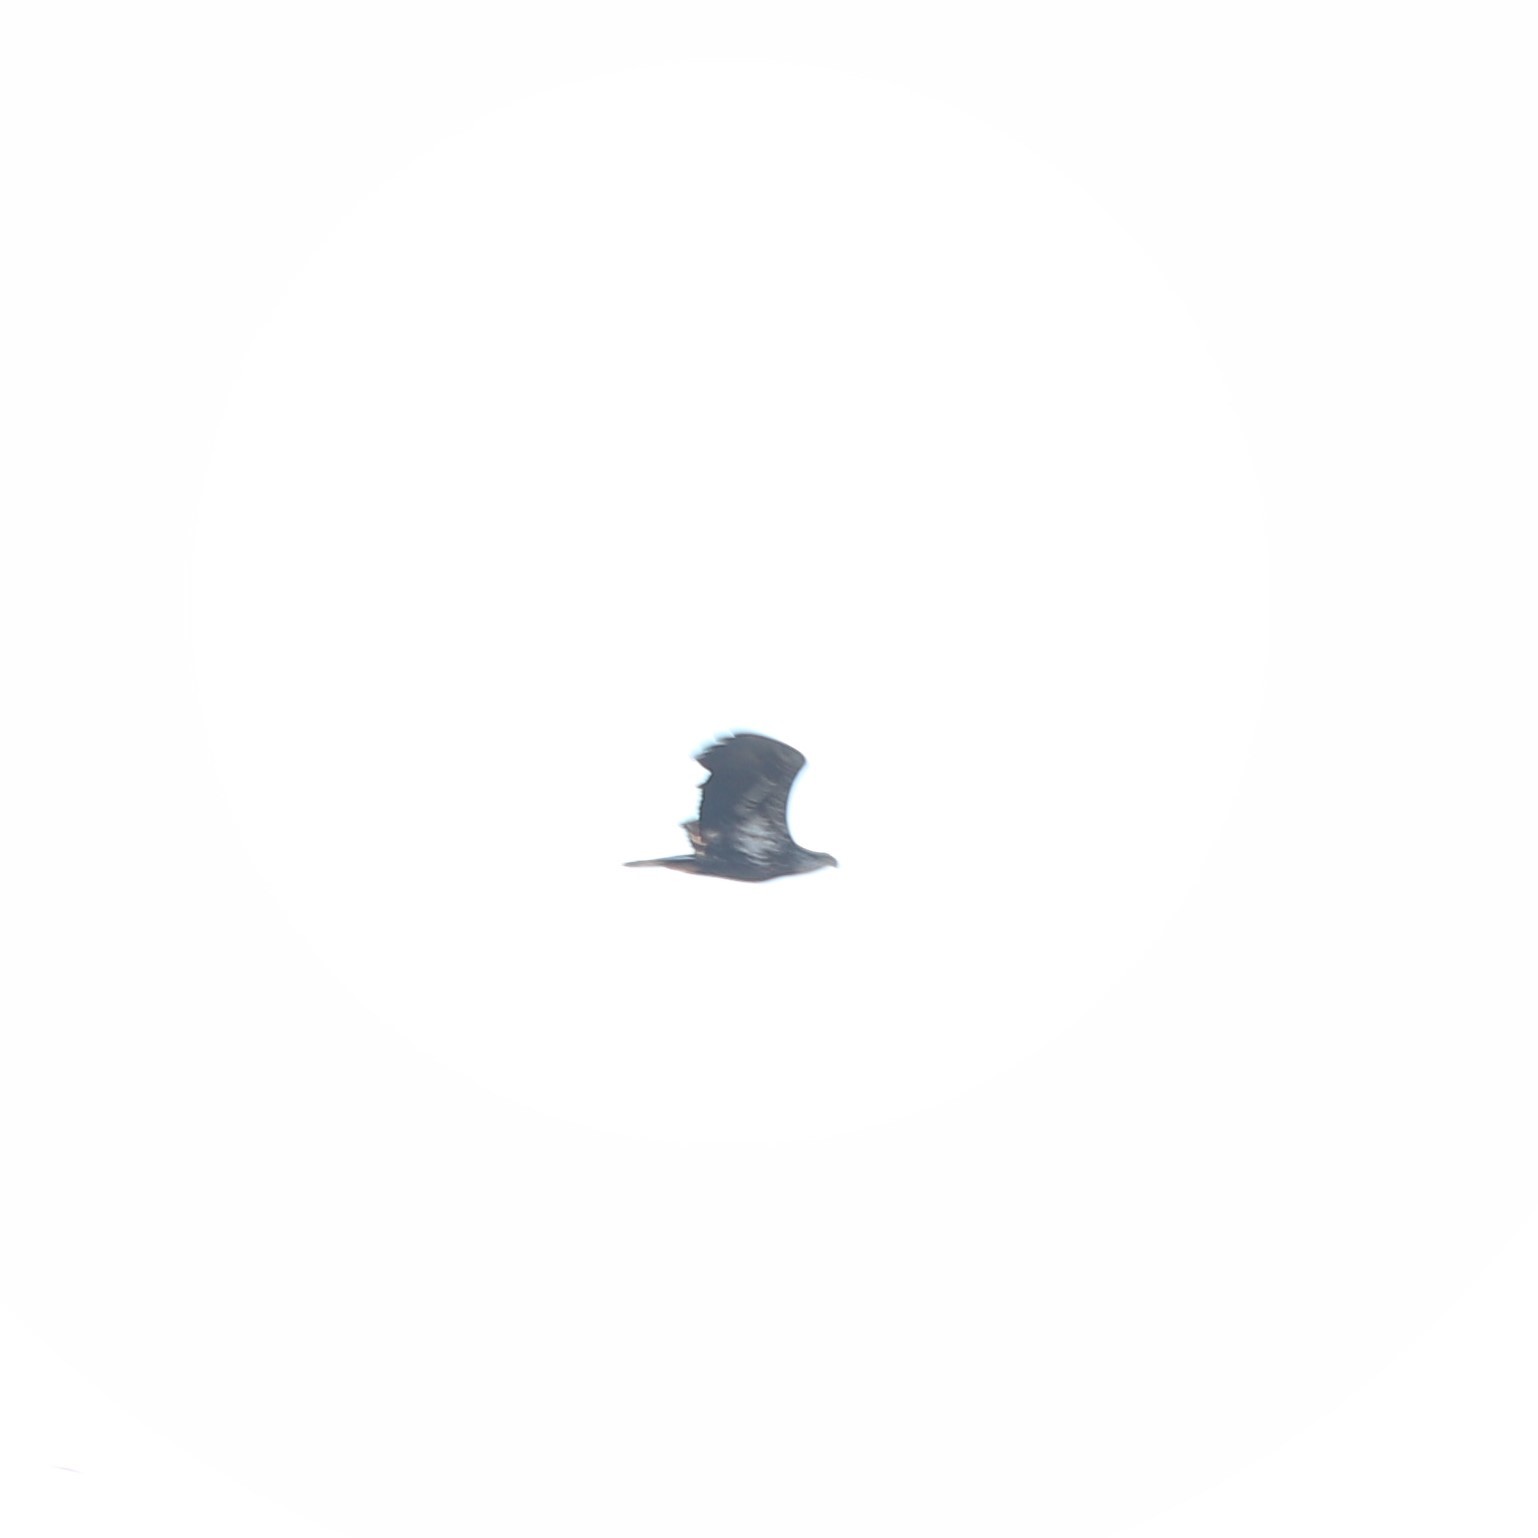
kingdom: Animalia
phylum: Chordata
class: Aves
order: Accipitriformes
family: Accipitridae
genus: Haliaeetus
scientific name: Haliaeetus leucocephalus
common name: Bald eagle
